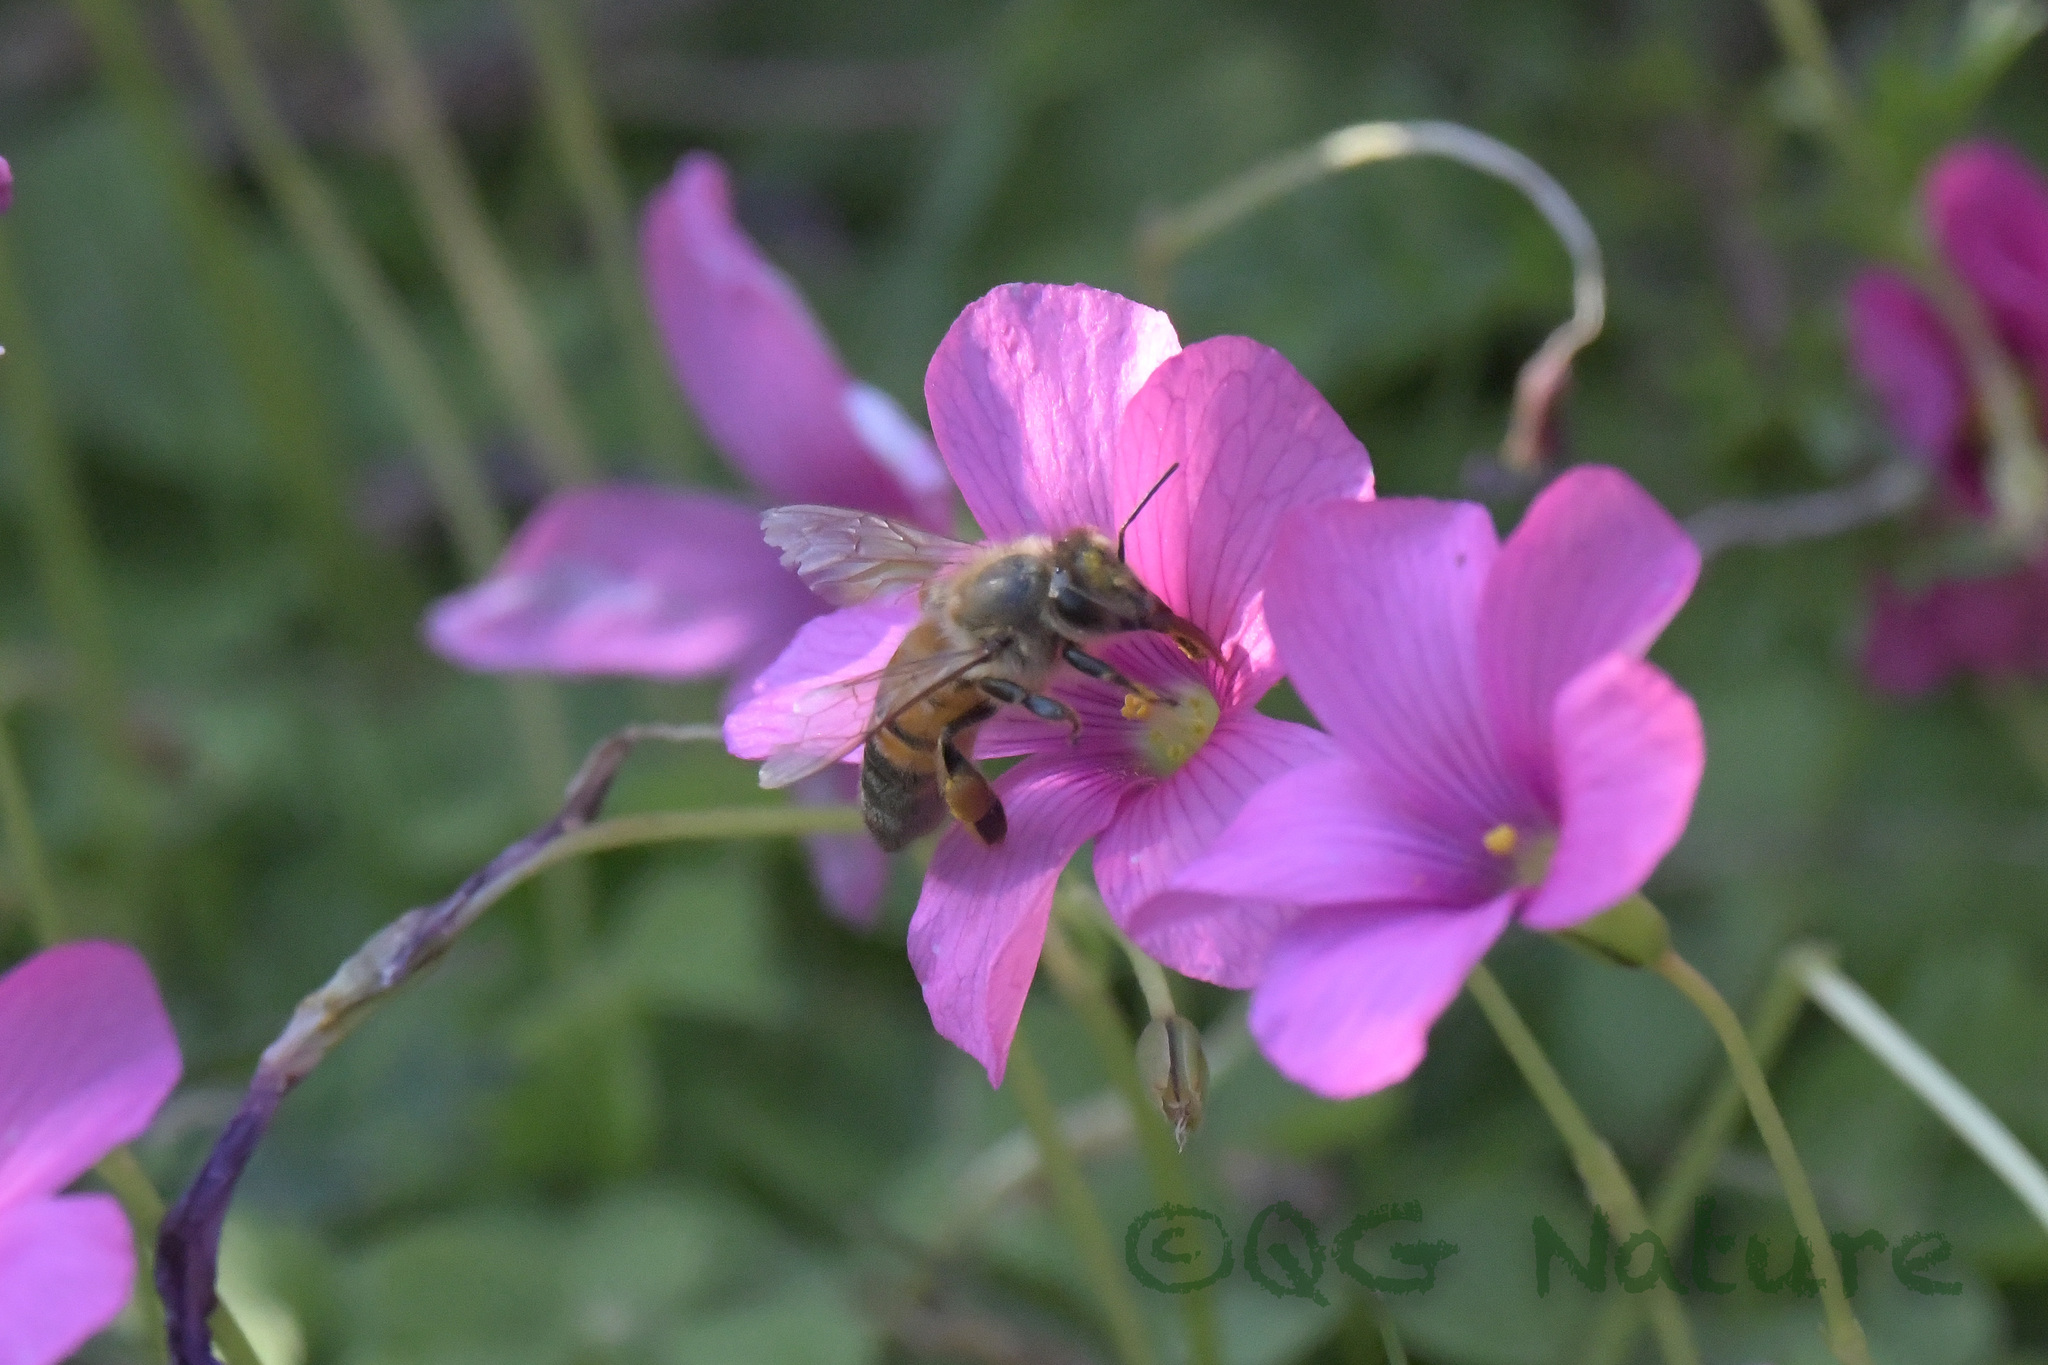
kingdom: Animalia
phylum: Arthropoda
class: Insecta
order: Hymenoptera
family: Apidae
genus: Apis
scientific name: Apis mellifera
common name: Honey bee
